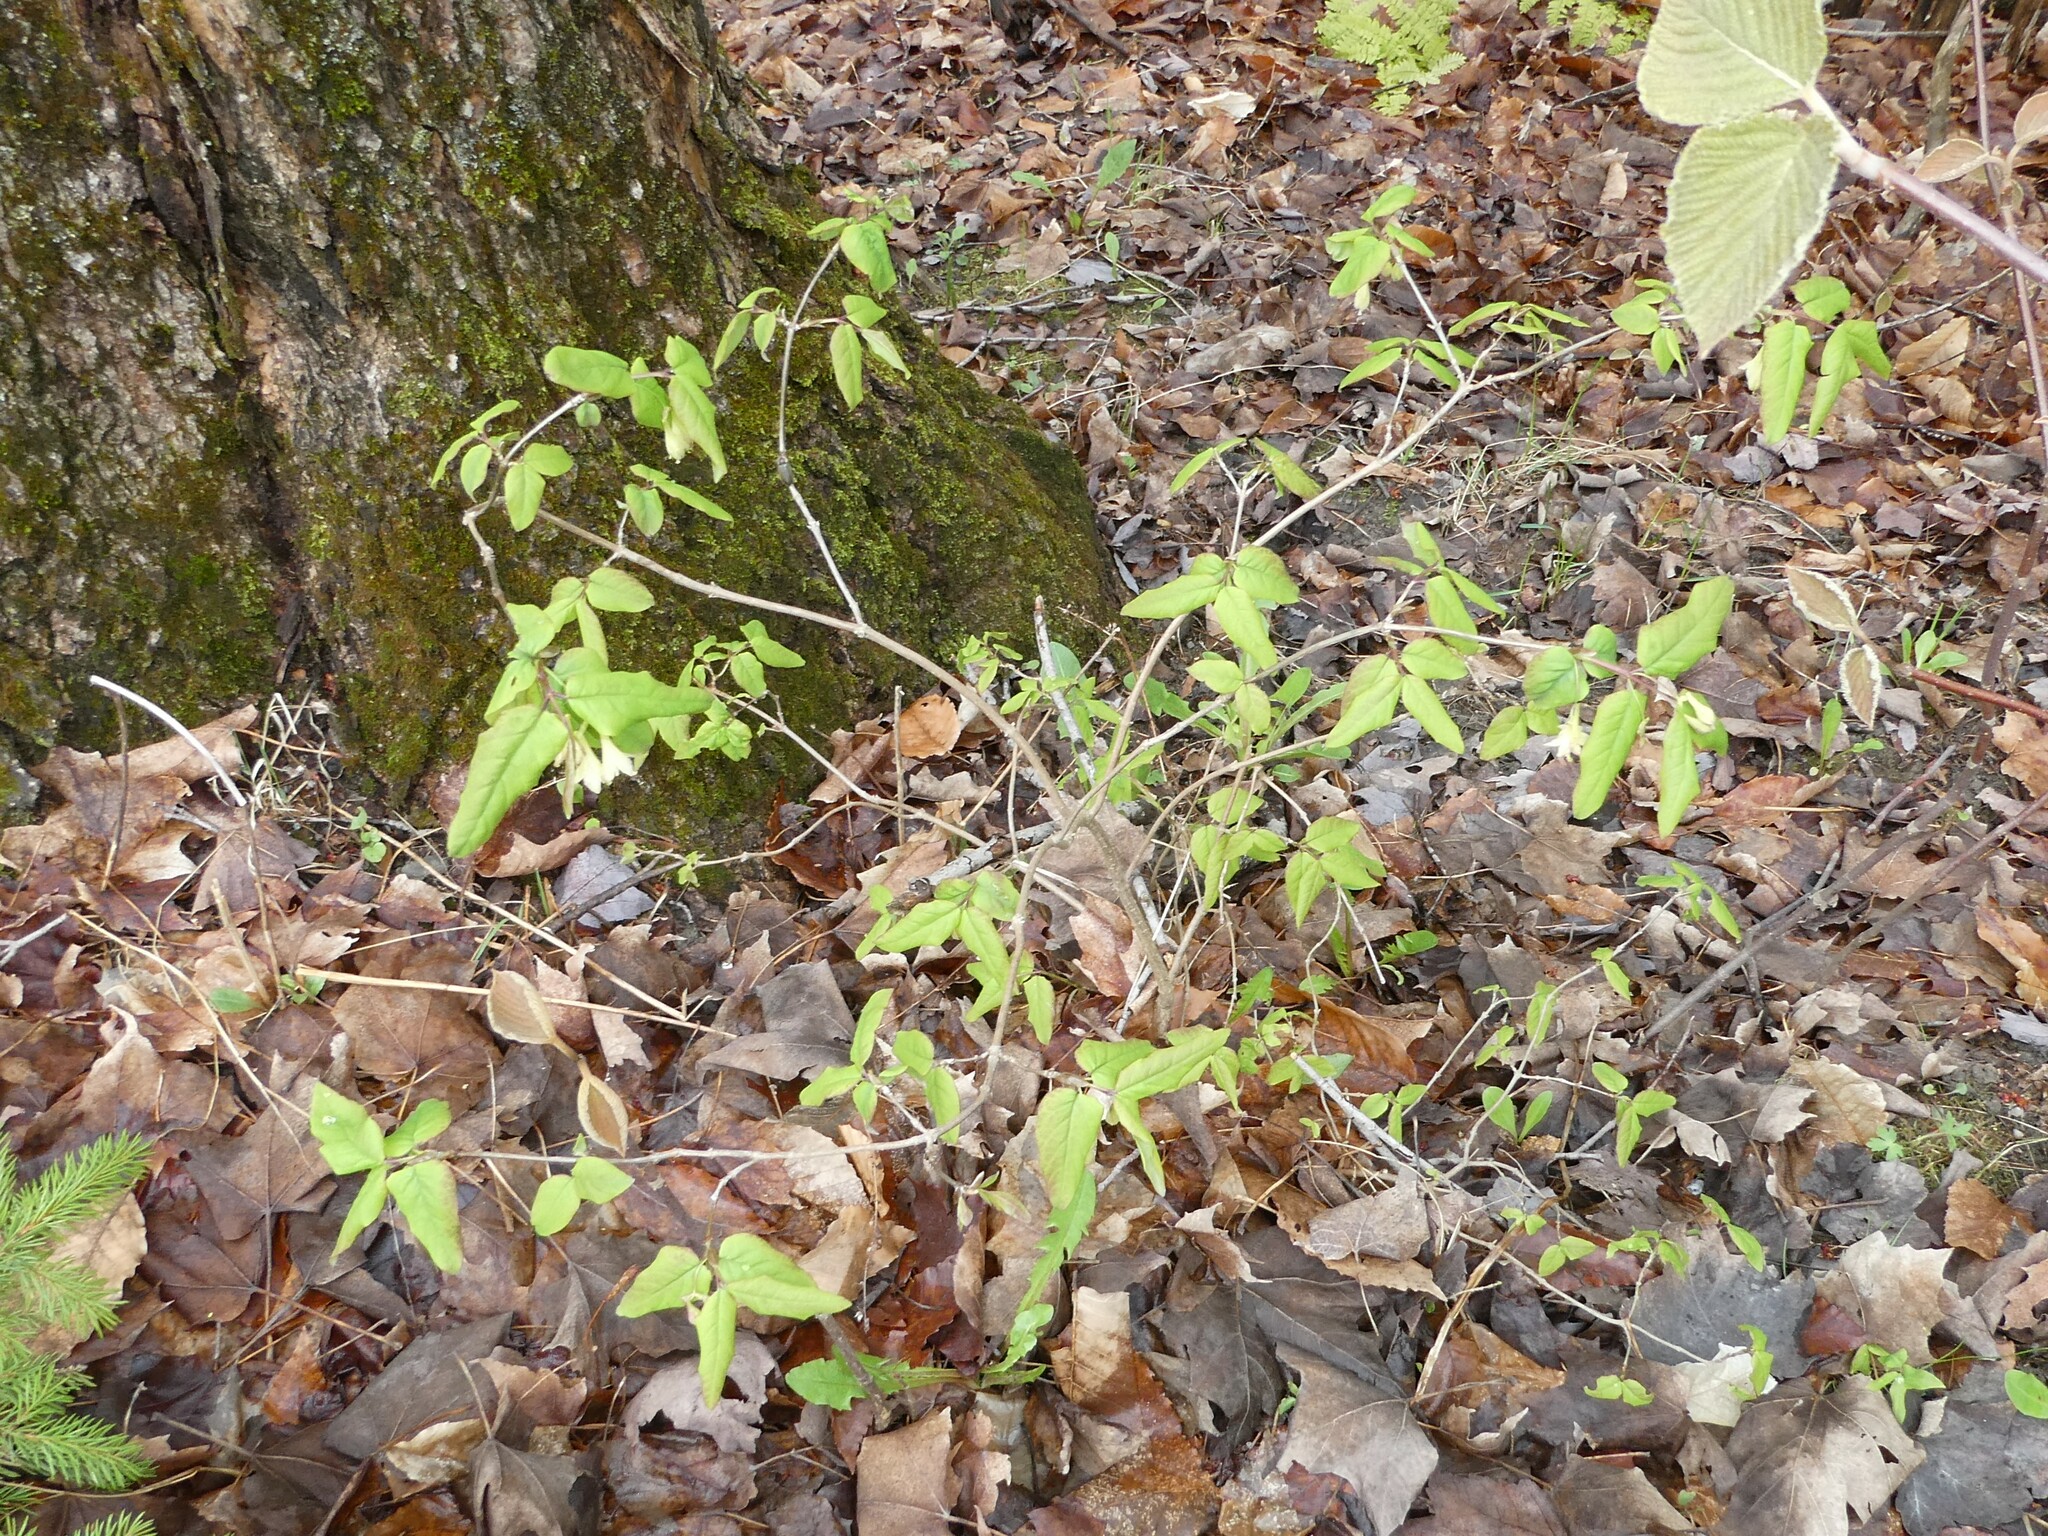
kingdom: Plantae
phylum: Tracheophyta
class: Magnoliopsida
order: Dipsacales
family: Caprifoliaceae
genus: Lonicera
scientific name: Lonicera canadensis
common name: American fly-honeysuckle
